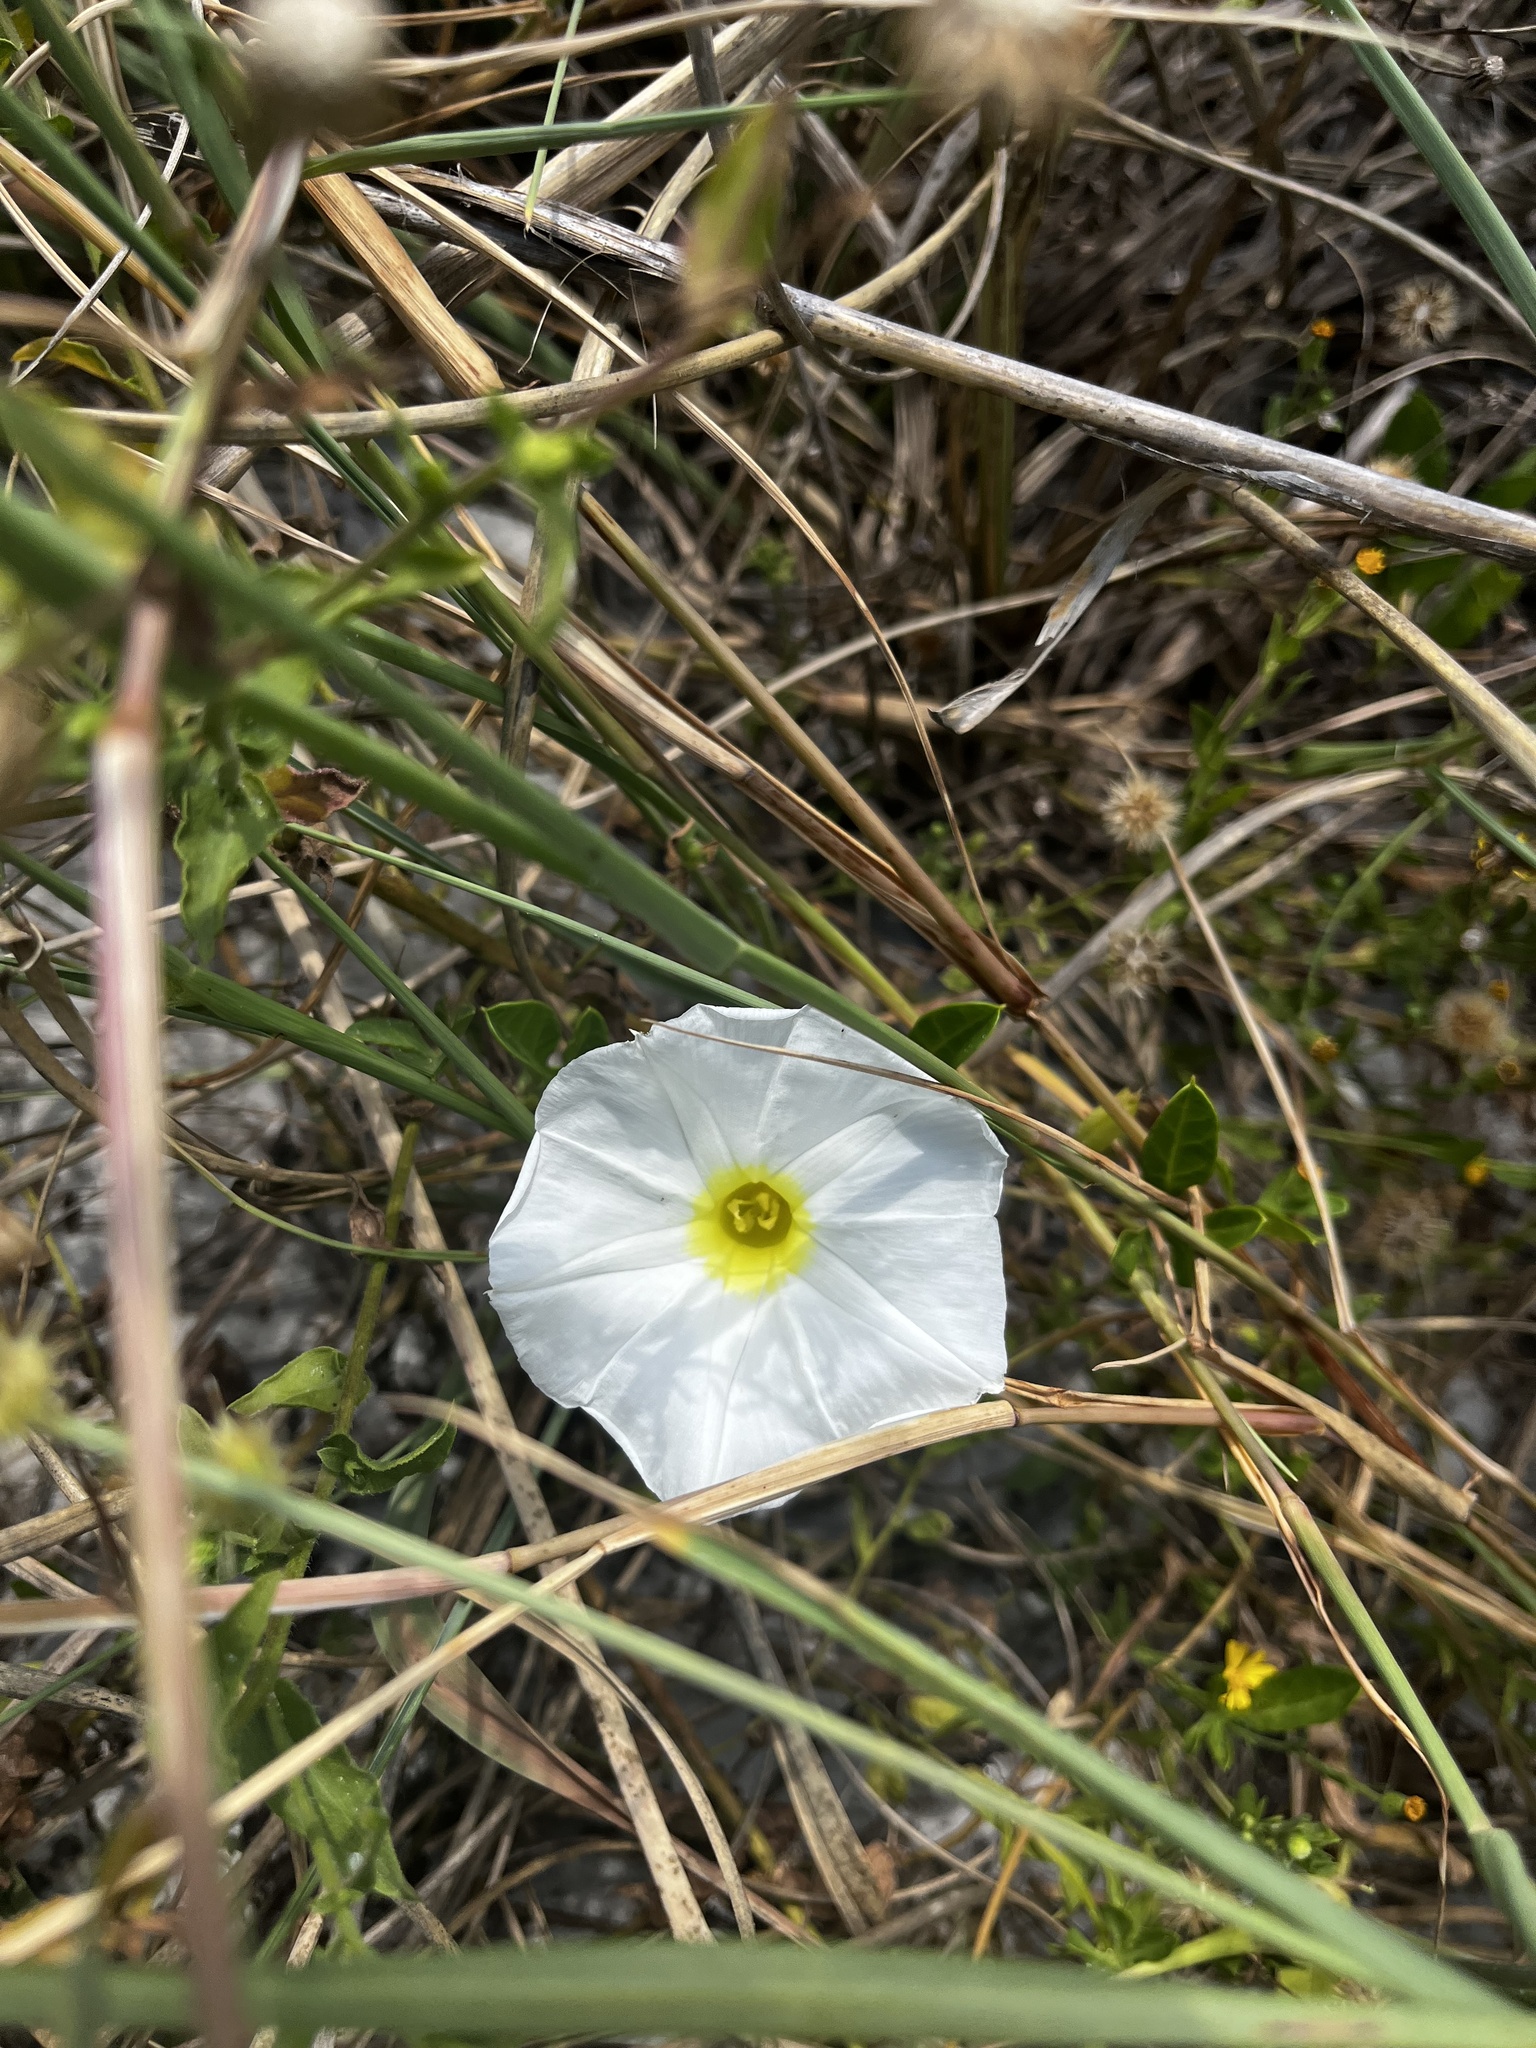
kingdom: Plantae
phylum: Tracheophyta
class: Magnoliopsida
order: Solanales
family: Convolvulaceae
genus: Ipomoea
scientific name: Ipomoea imperati
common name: Fiddle-leaf morning-glory
